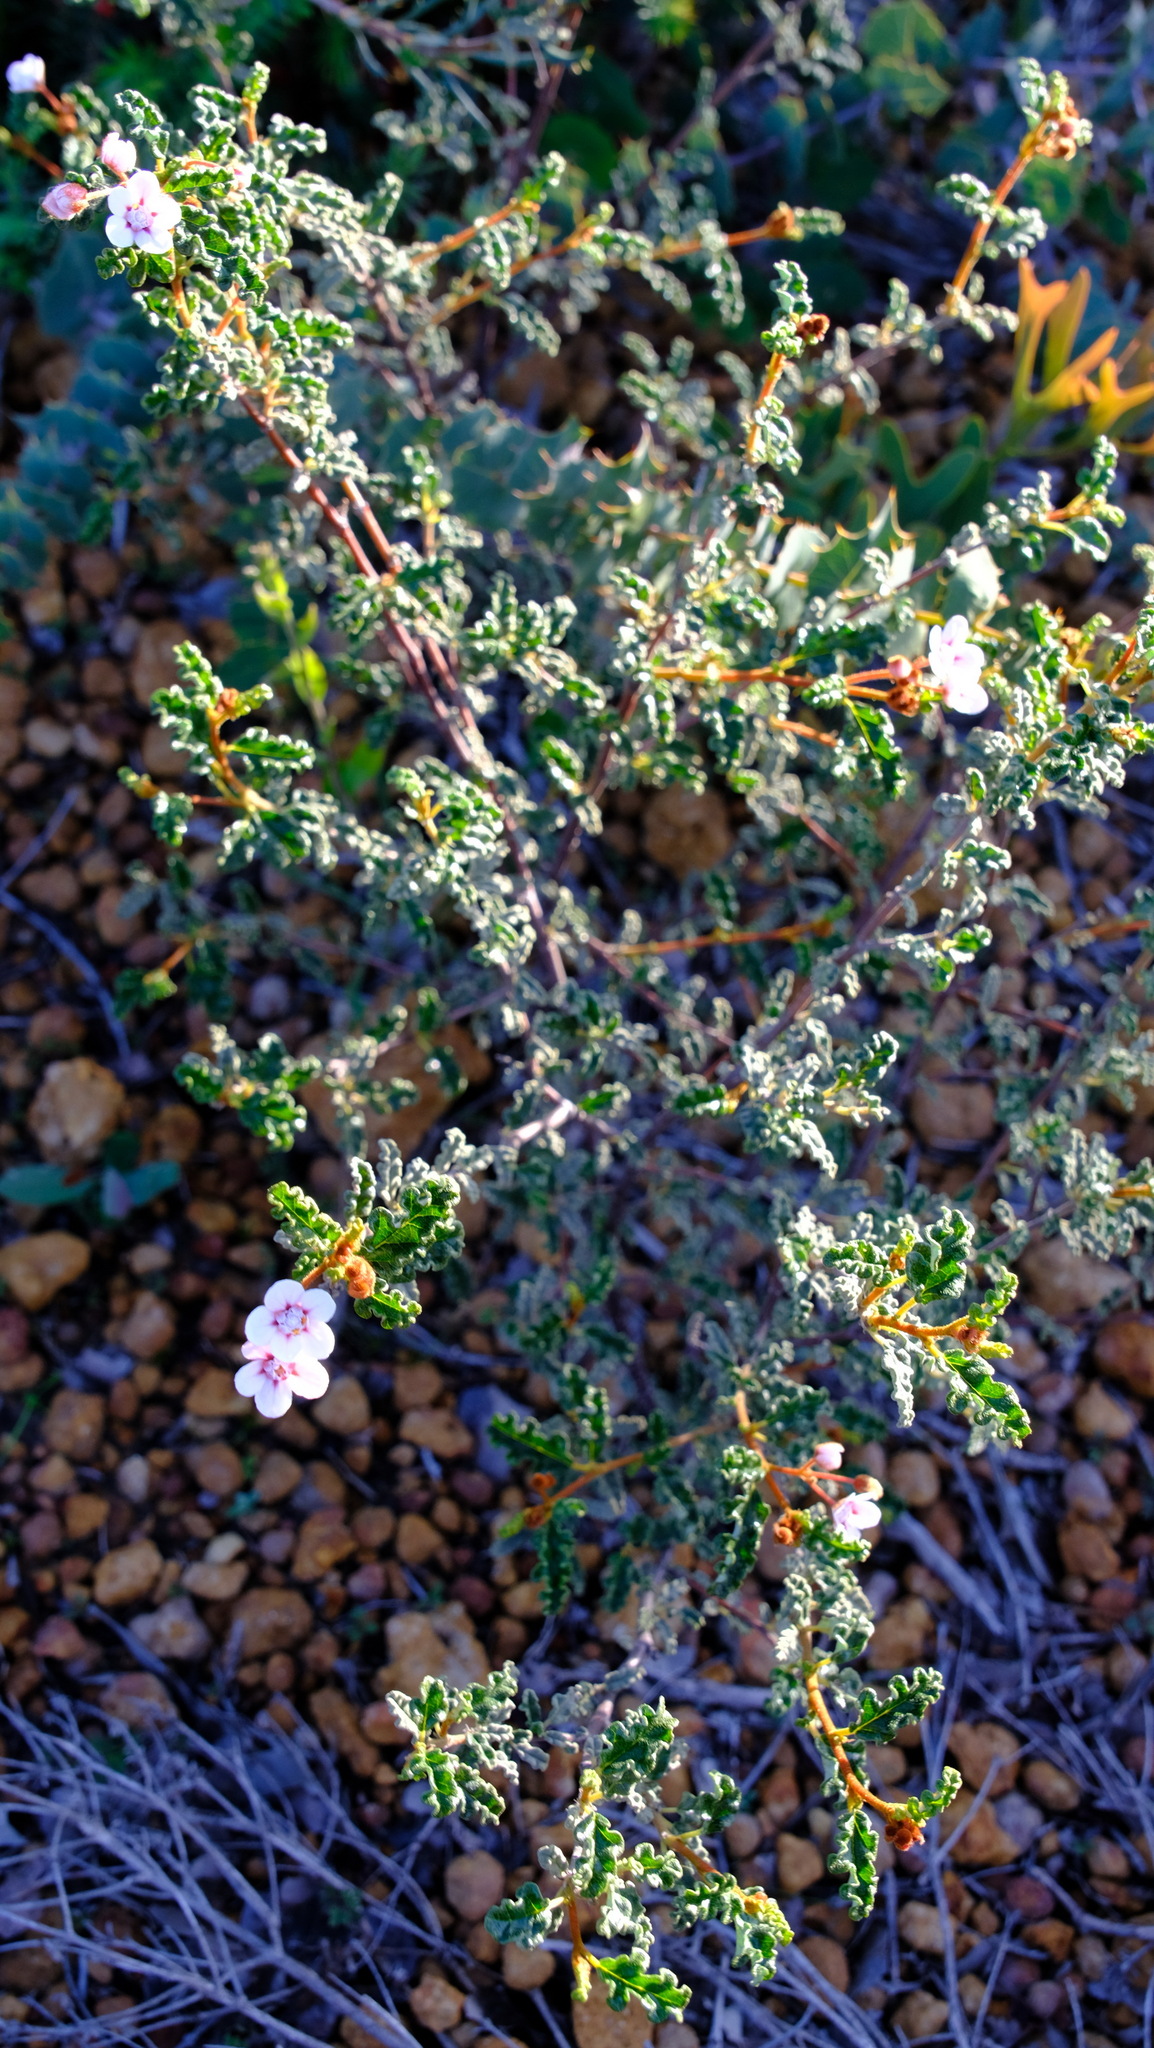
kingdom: Plantae
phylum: Tracheophyta
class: Magnoliopsida
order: Malvales
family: Malvaceae
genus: Androcalva
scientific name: Androcalva pulchella
